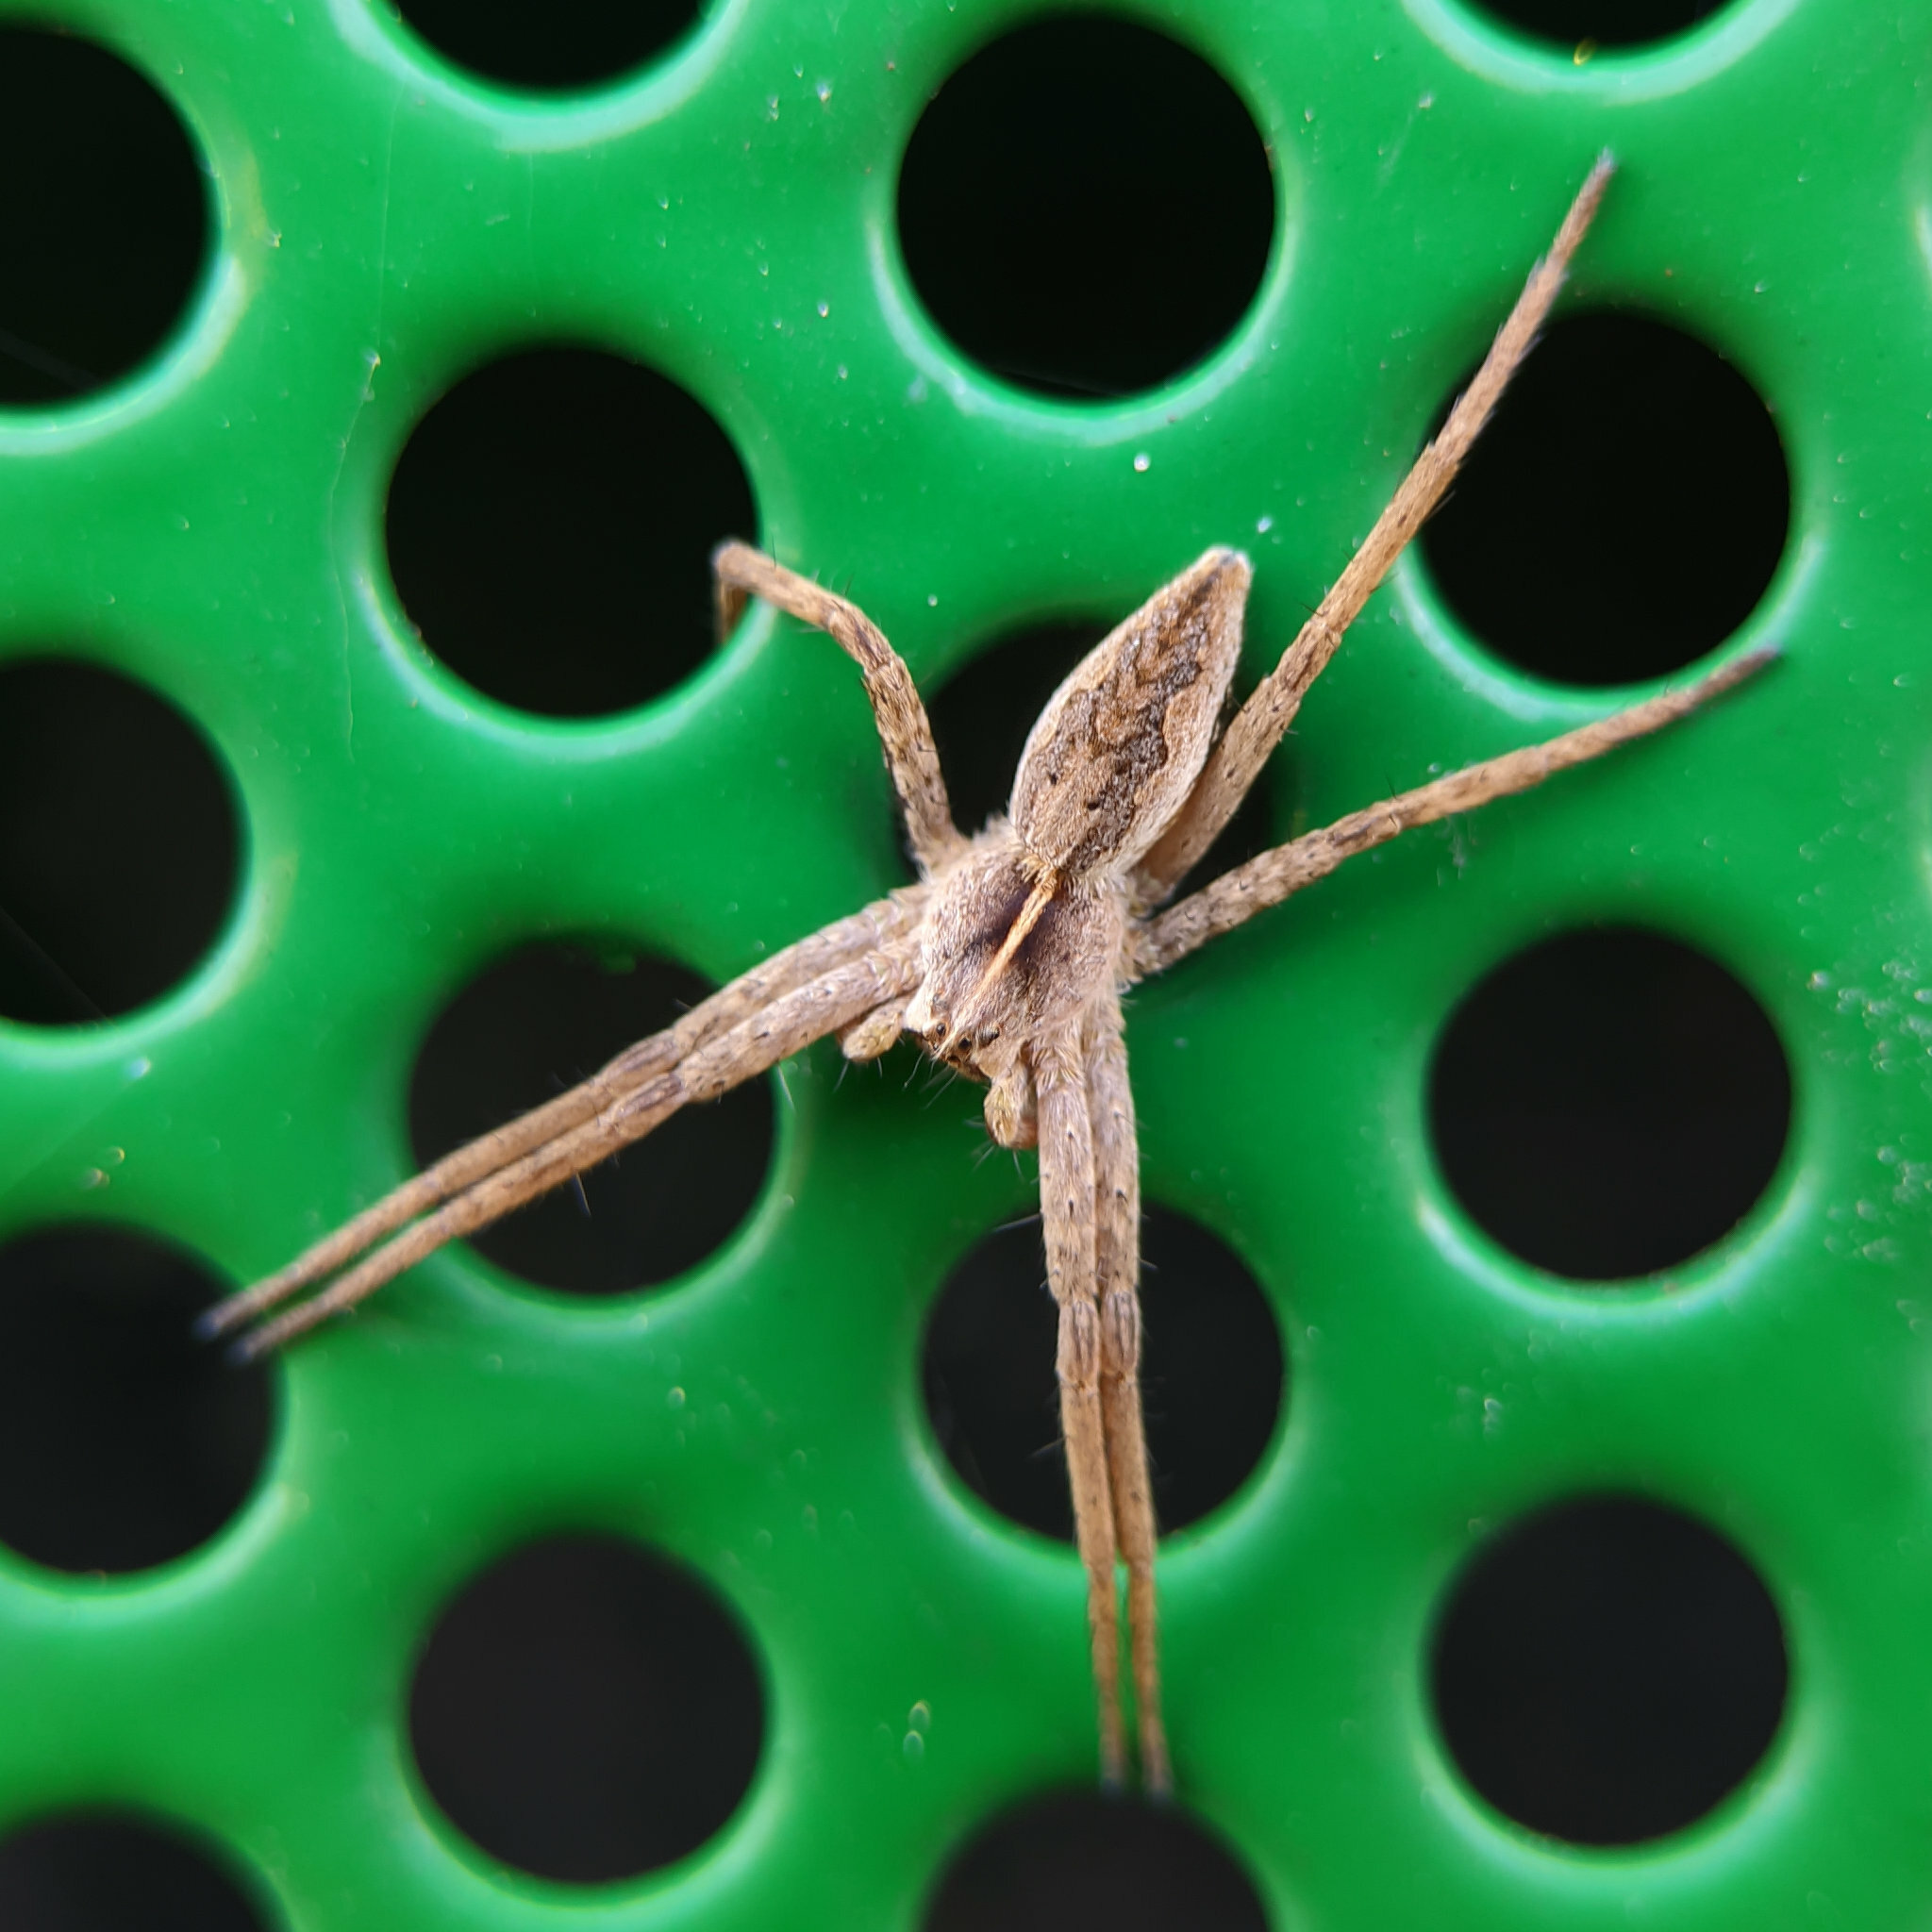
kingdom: Animalia
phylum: Arthropoda
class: Arachnida
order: Araneae
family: Pisauridae
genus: Pisaura
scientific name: Pisaura mirabilis
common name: Tent spider
